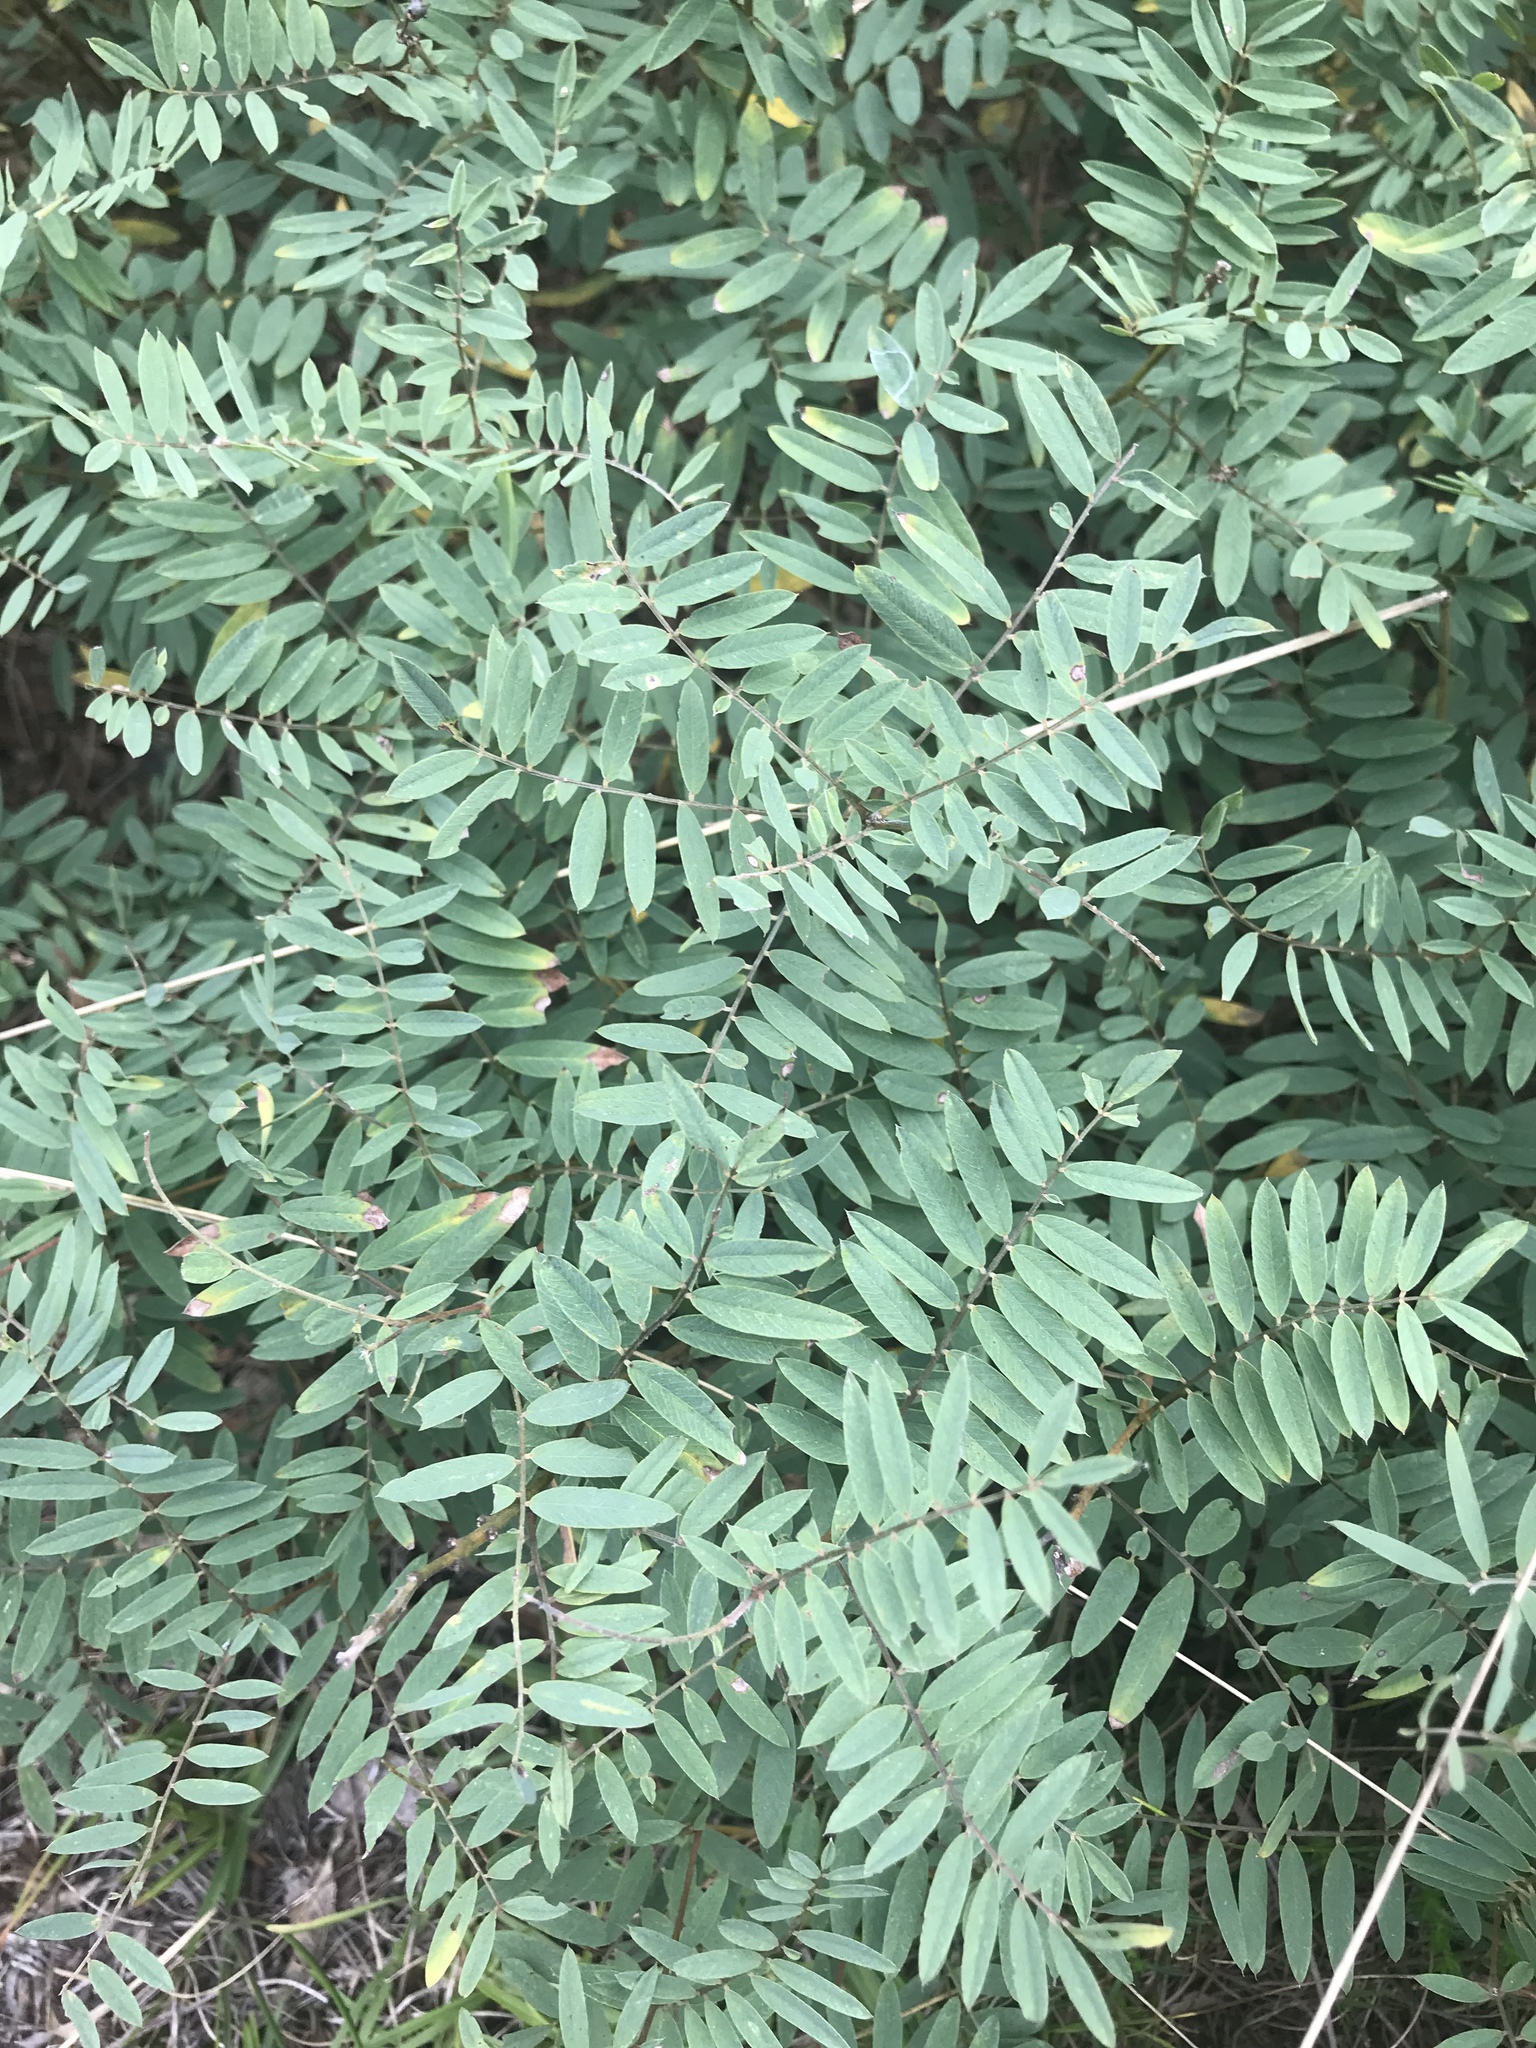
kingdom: Plantae
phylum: Tracheophyta
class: Magnoliopsida
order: Fabales
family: Fabaceae
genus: Tephrosia
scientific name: Tephrosia virginiana
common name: Rabbit-pea
